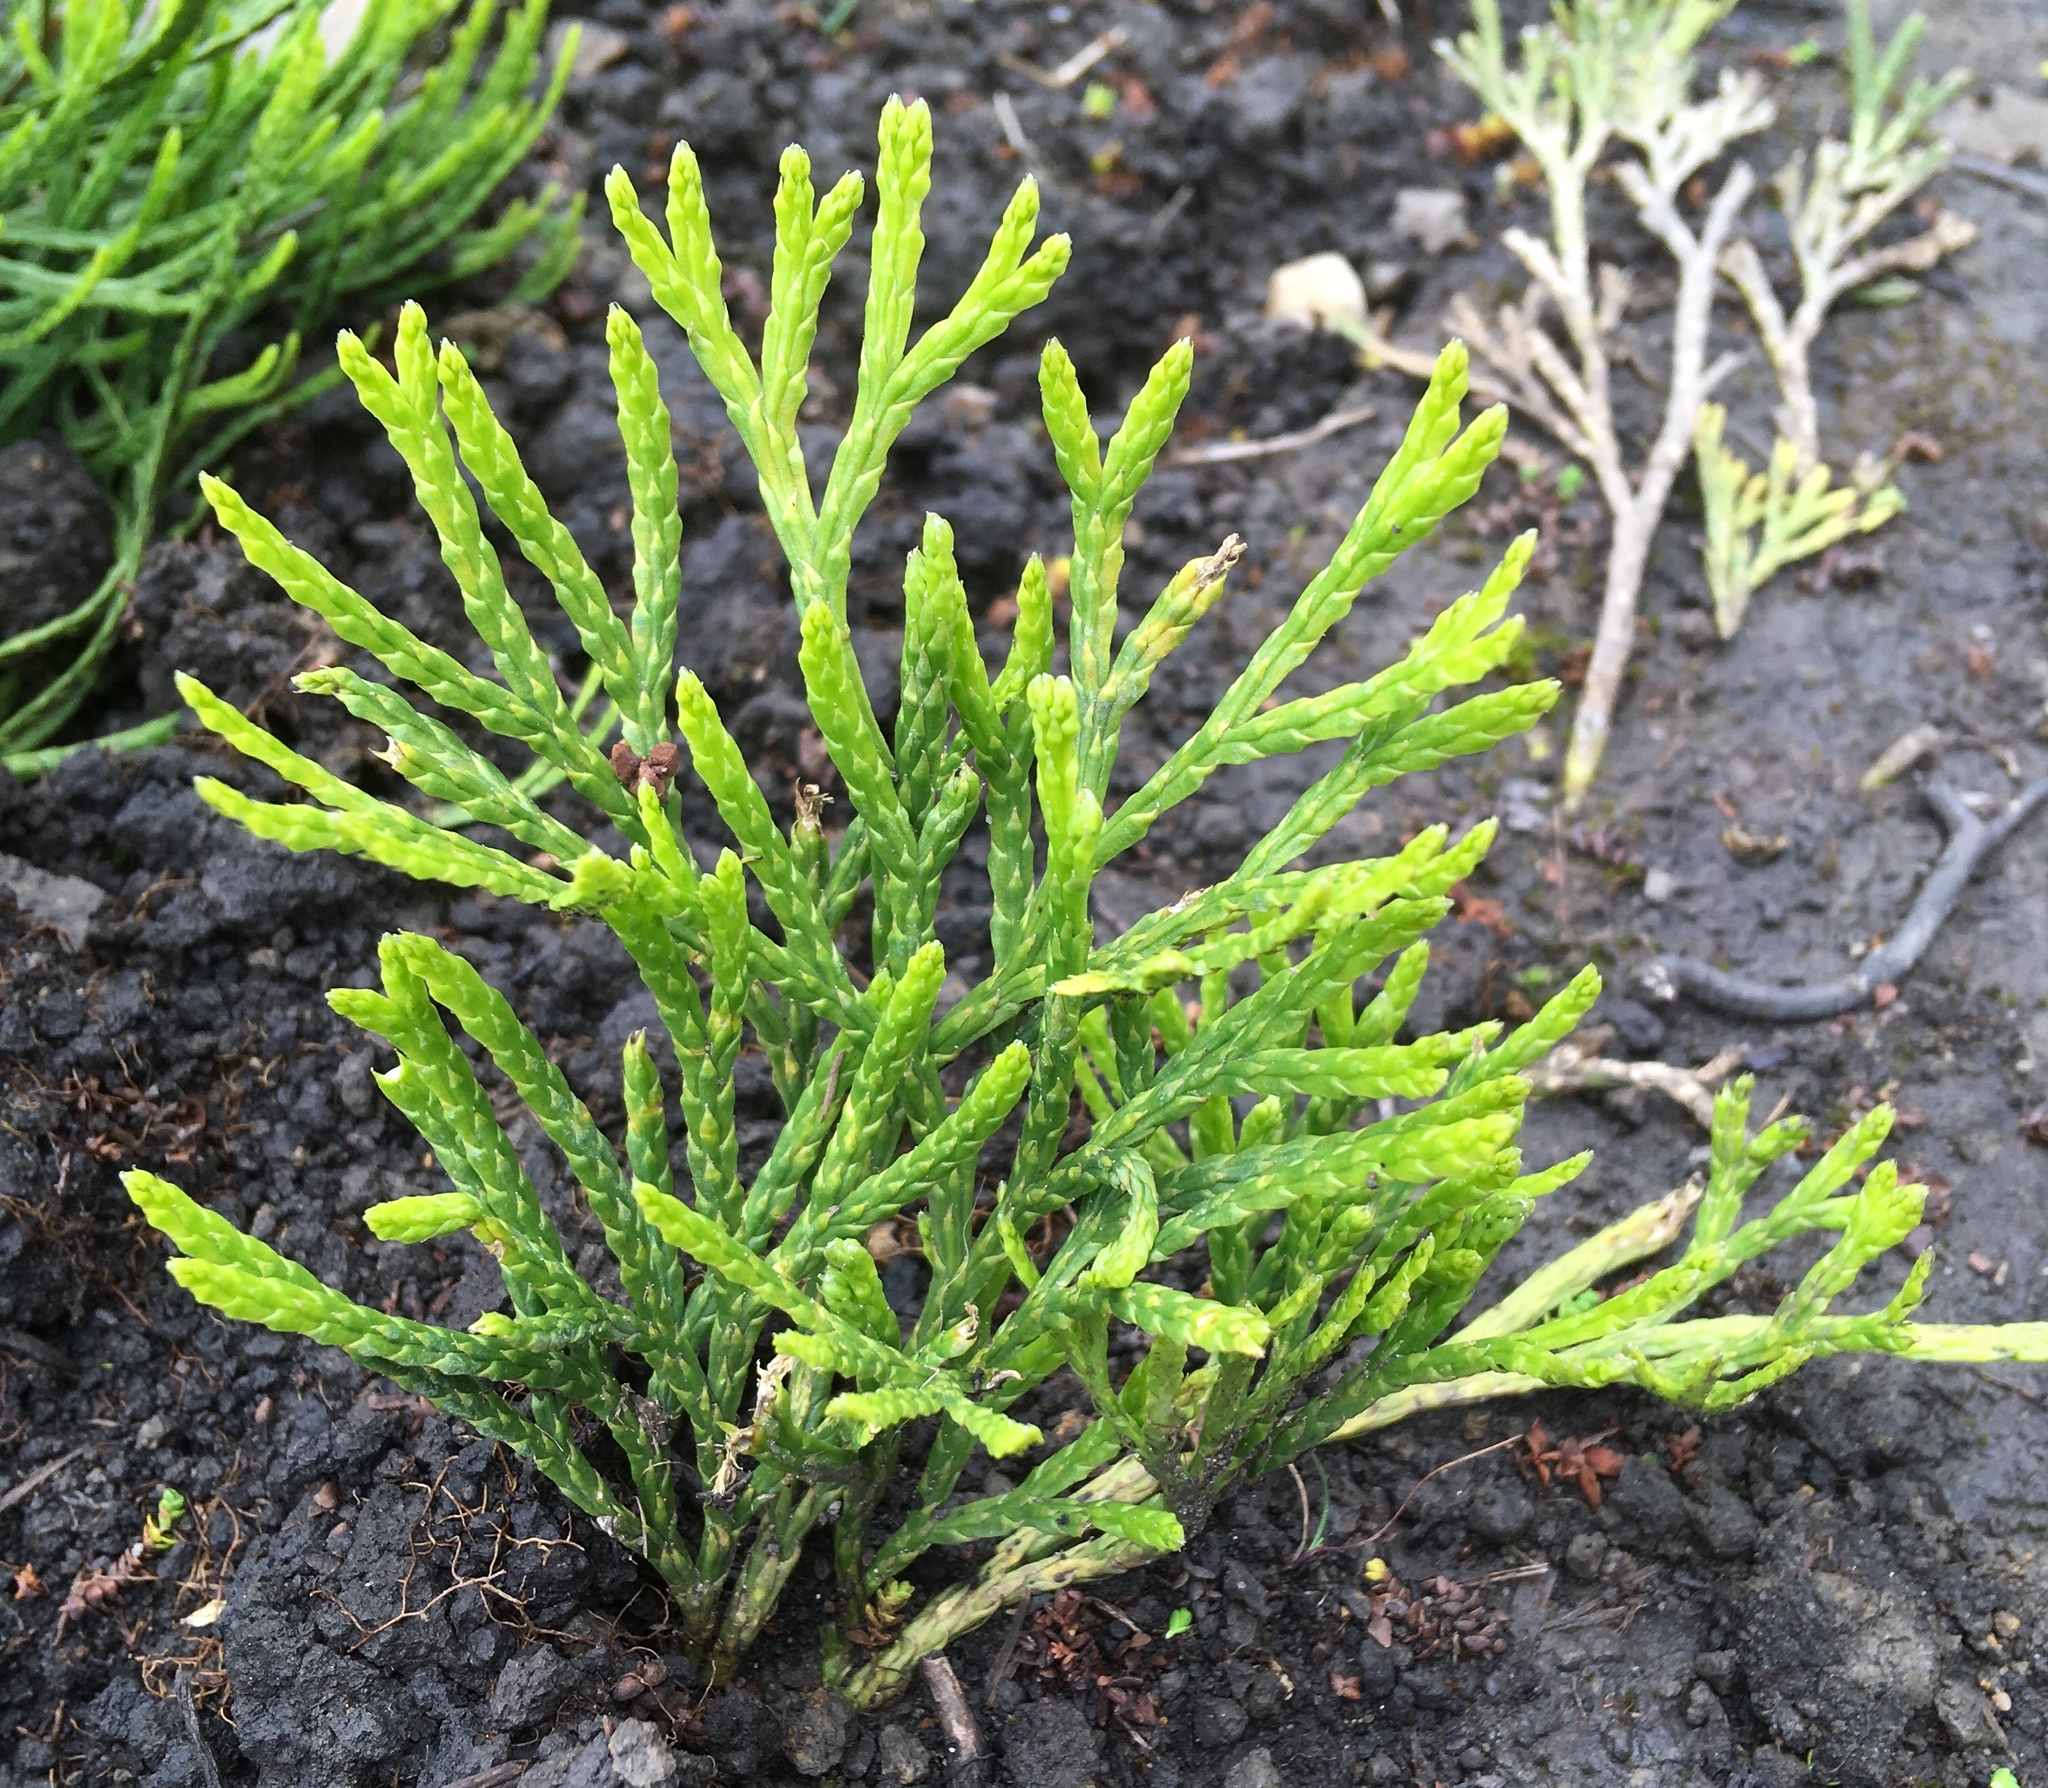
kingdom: Plantae
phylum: Tracheophyta
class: Lycopodiopsida
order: Lycopodiales
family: Lycopodiaceae
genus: Diphasiastrum
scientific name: Diphasiastrum thyoides
